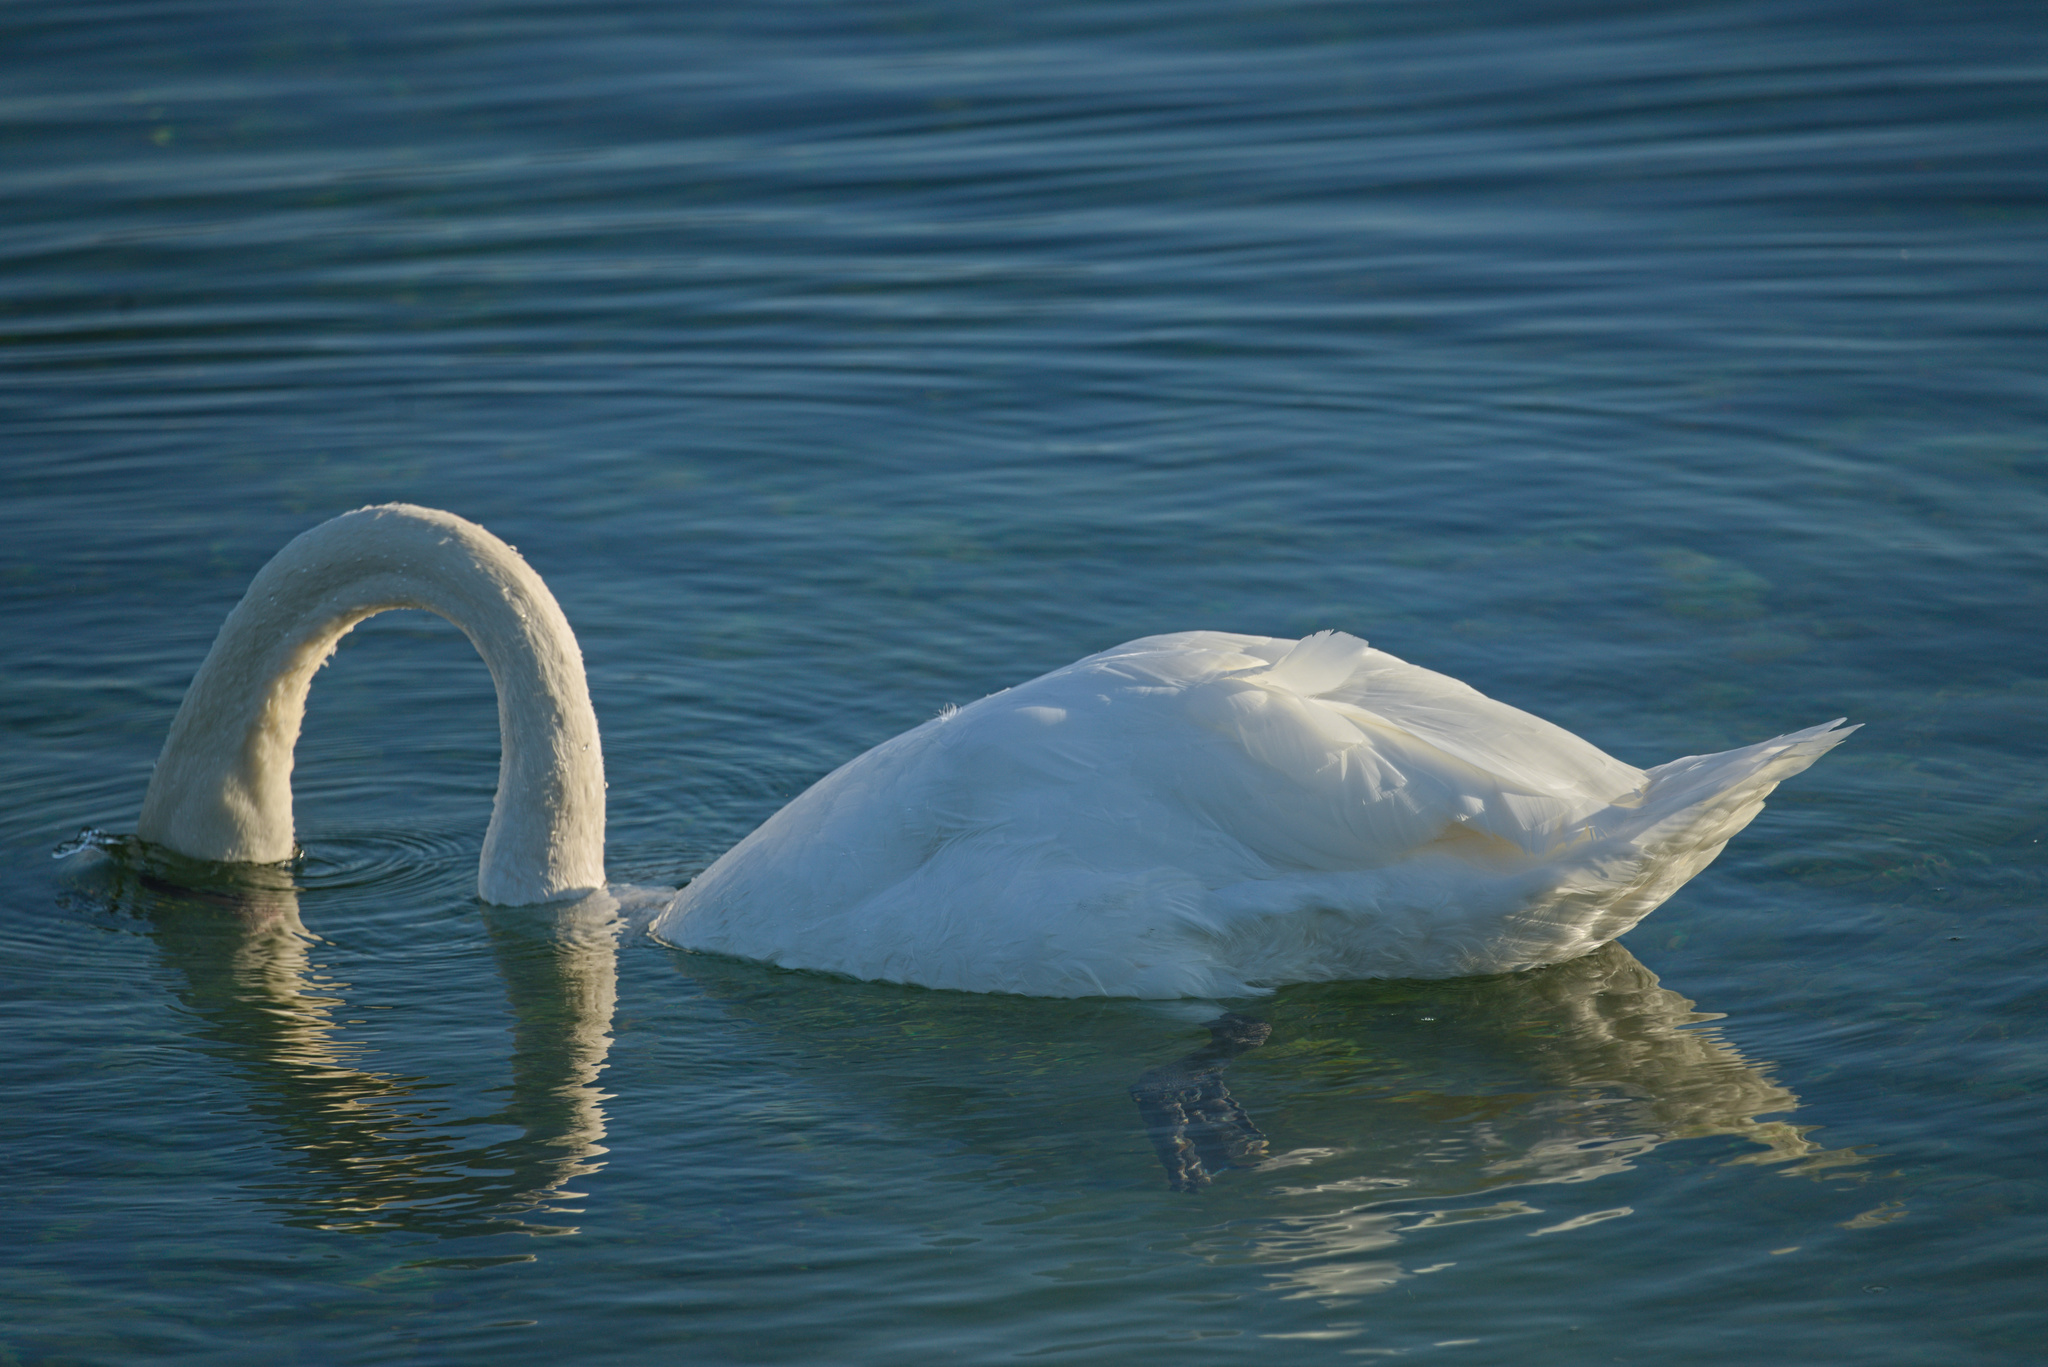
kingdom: Animalia
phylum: Chordata
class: Aves
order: Anseriformes
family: Anatidae
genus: Cygnus
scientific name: Cygnus olor
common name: Mute swan
